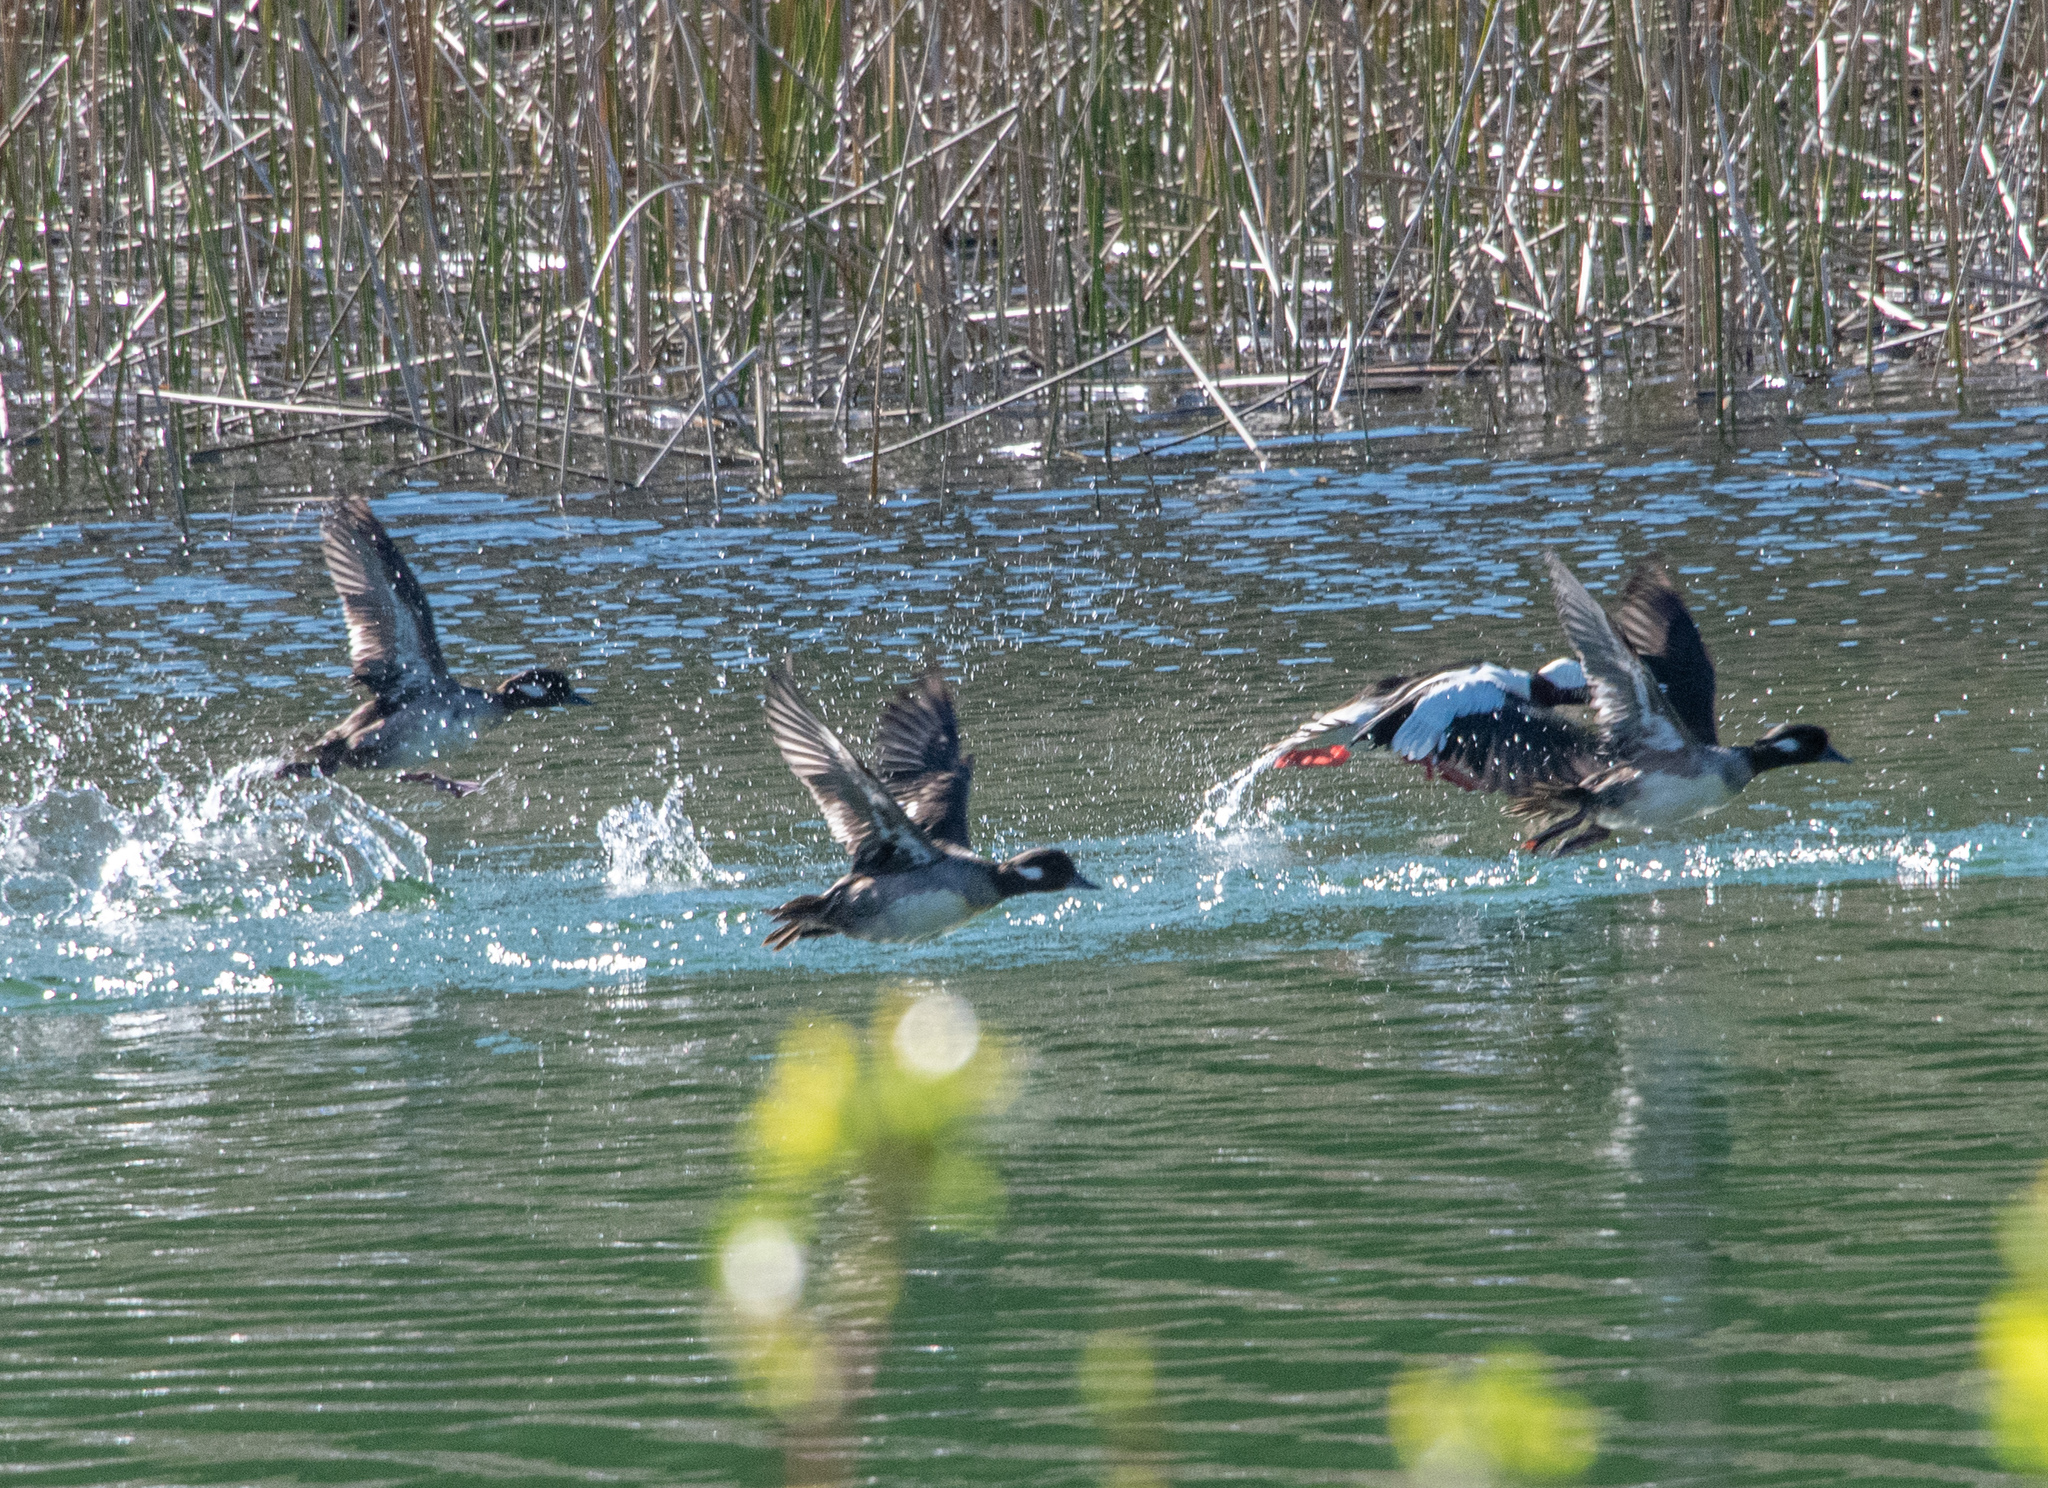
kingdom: Animalia
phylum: Chordata
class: Aves
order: Anseriformes
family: Anatidae
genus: Bucephala
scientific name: Bucephala albeola
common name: Bufflehead
